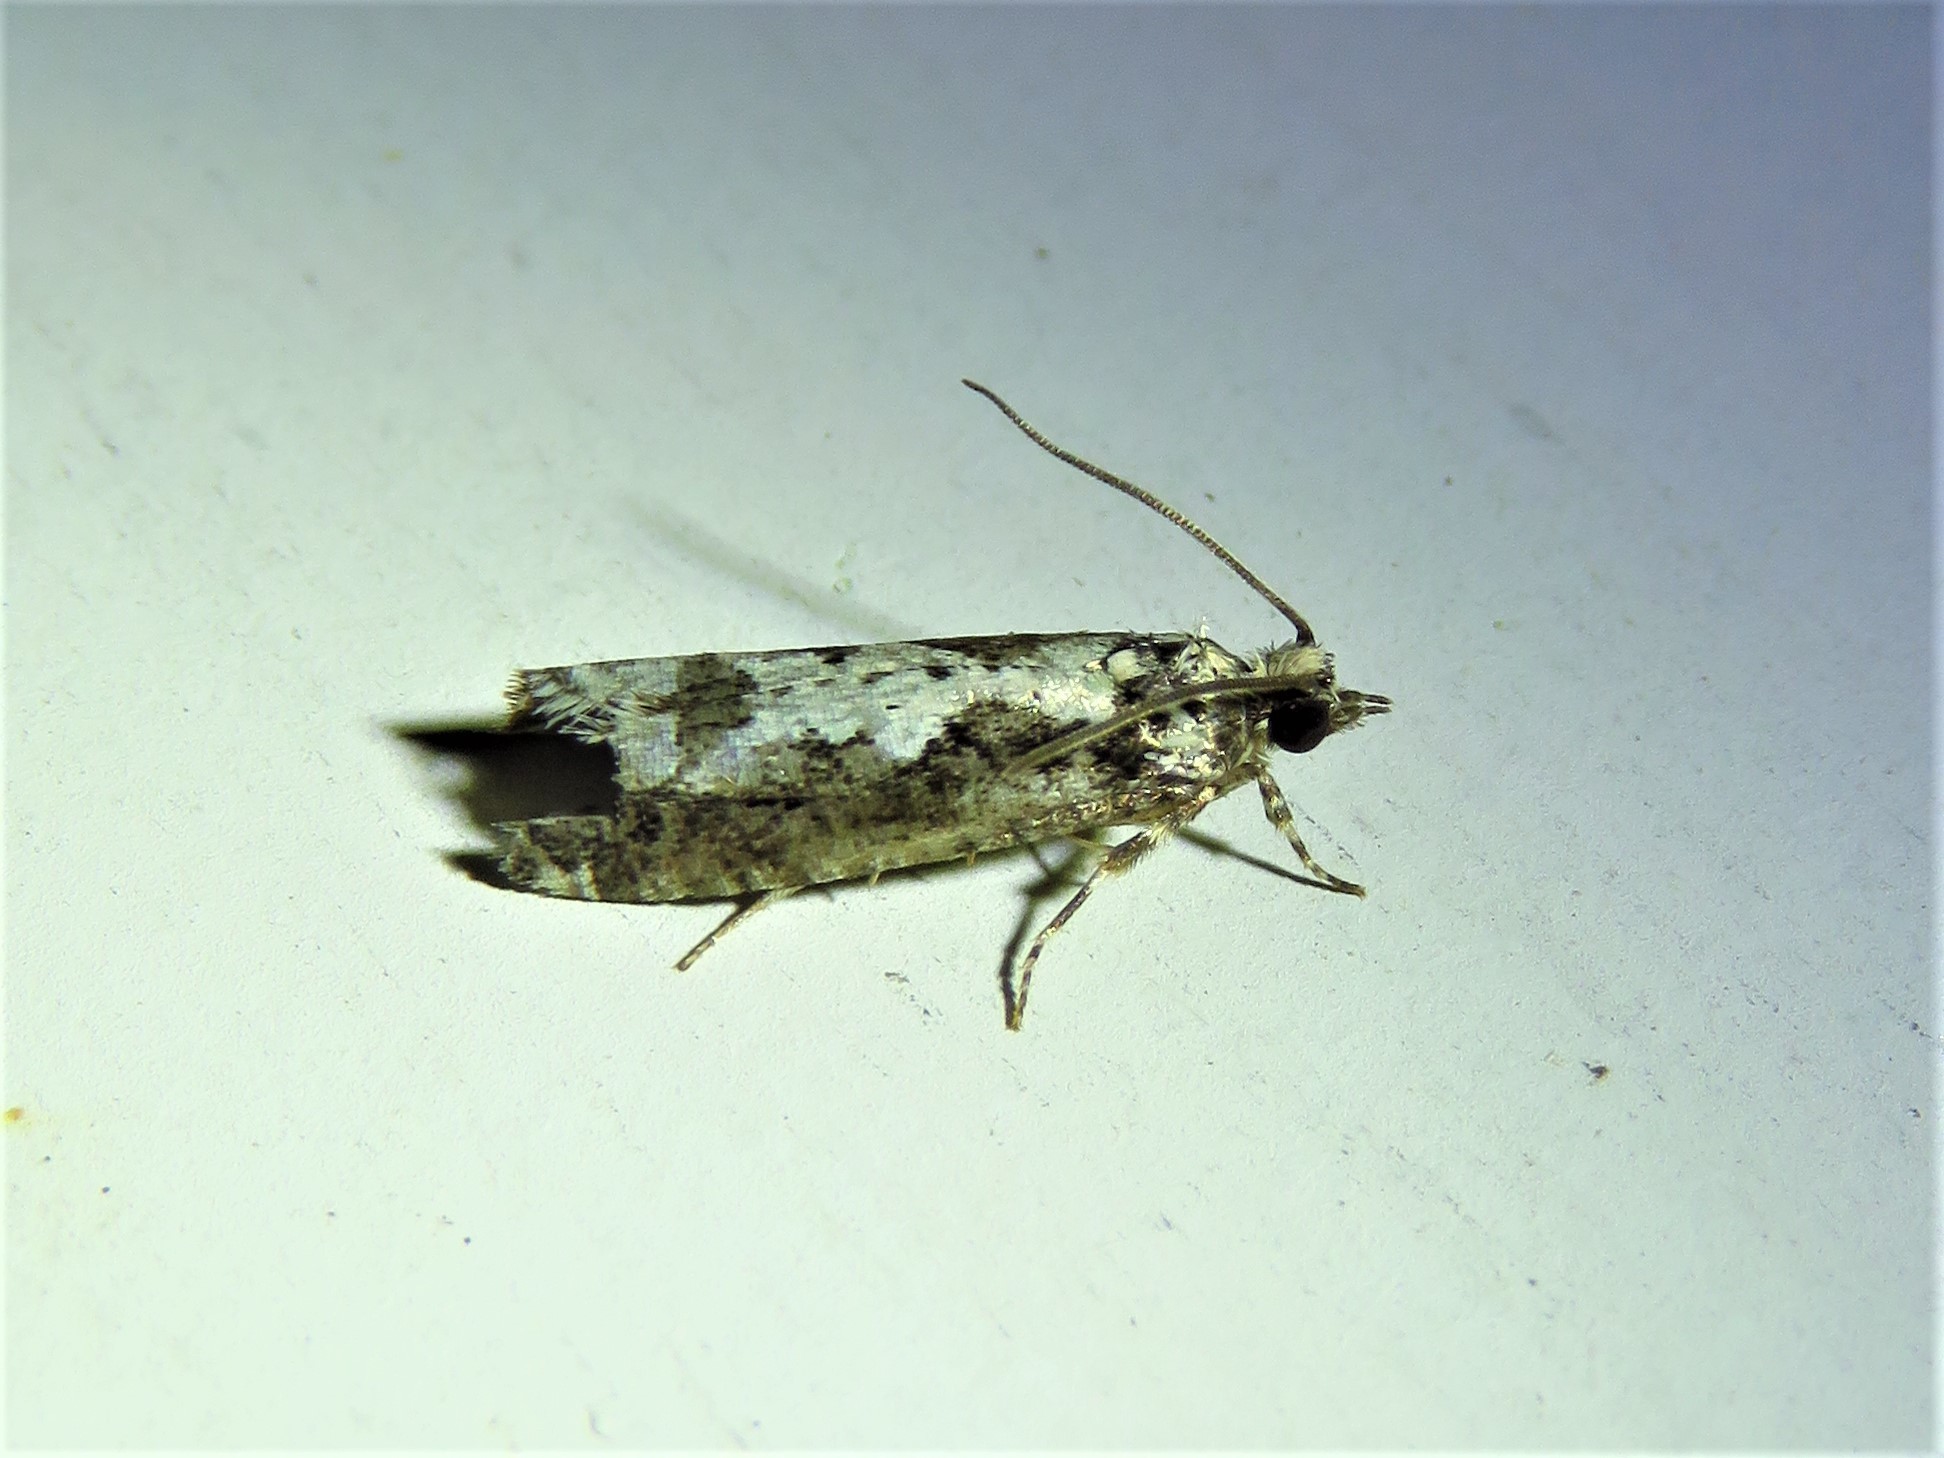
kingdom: Animalia
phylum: Arthropoda
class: Insecta
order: Lepidoptera
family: Tortricidae
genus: Chimoptesis
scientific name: Chimoptesis pennsylvaniana
